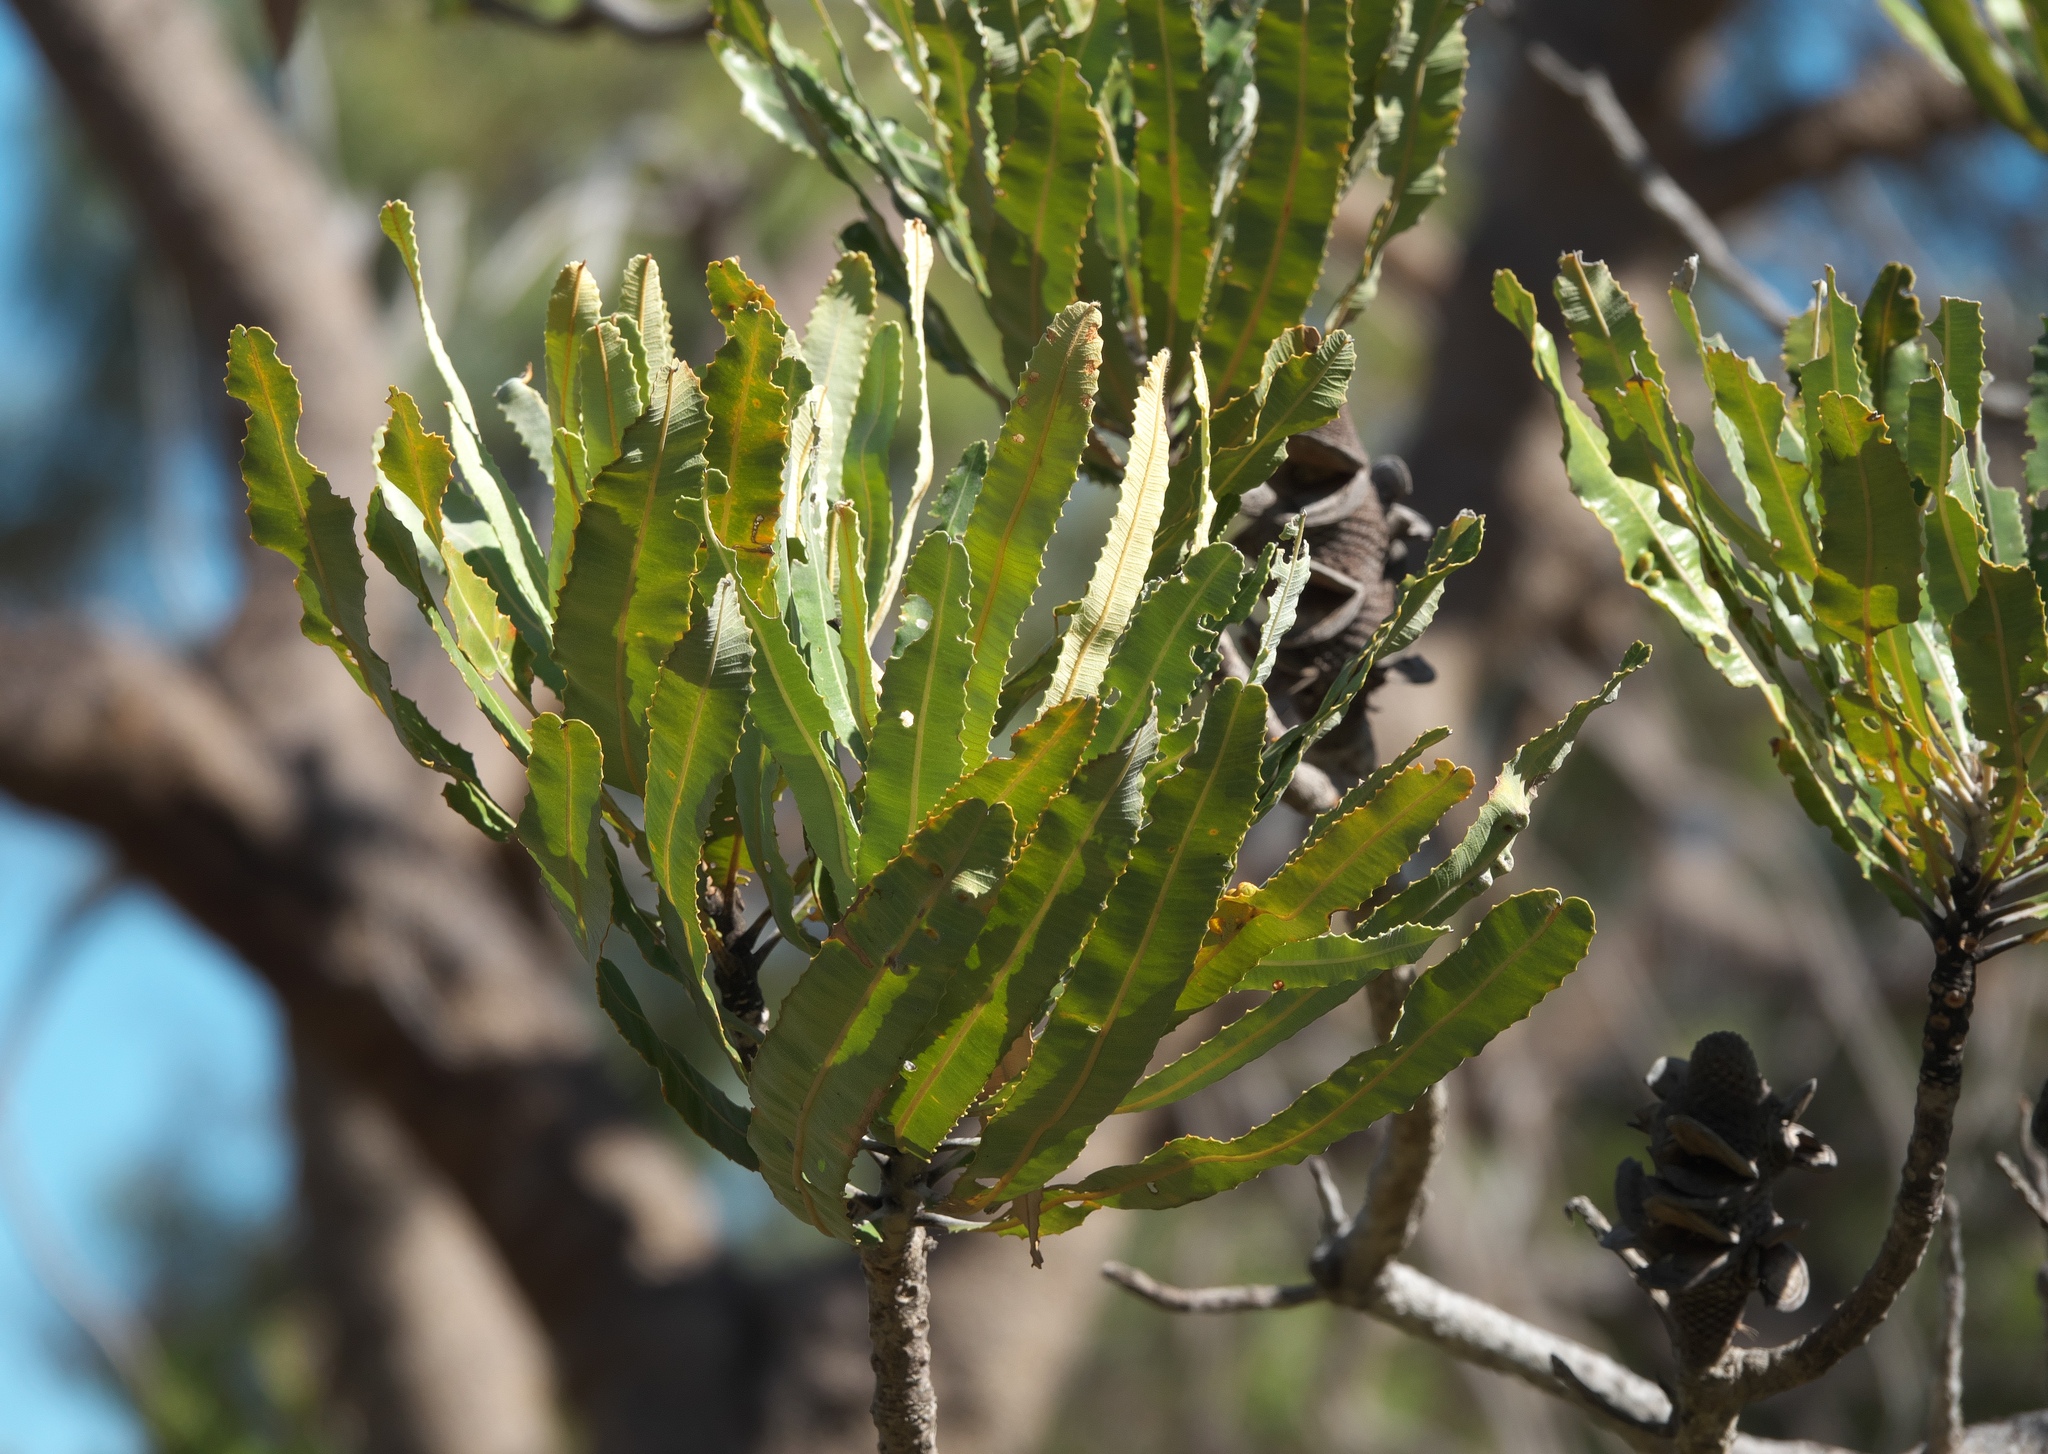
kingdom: Plantae
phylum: Tracheophyta
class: Magnoliopsida
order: Proteales
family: Proteaceae
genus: Banksia
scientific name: Banksia menziesii
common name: Menzie's banksia
